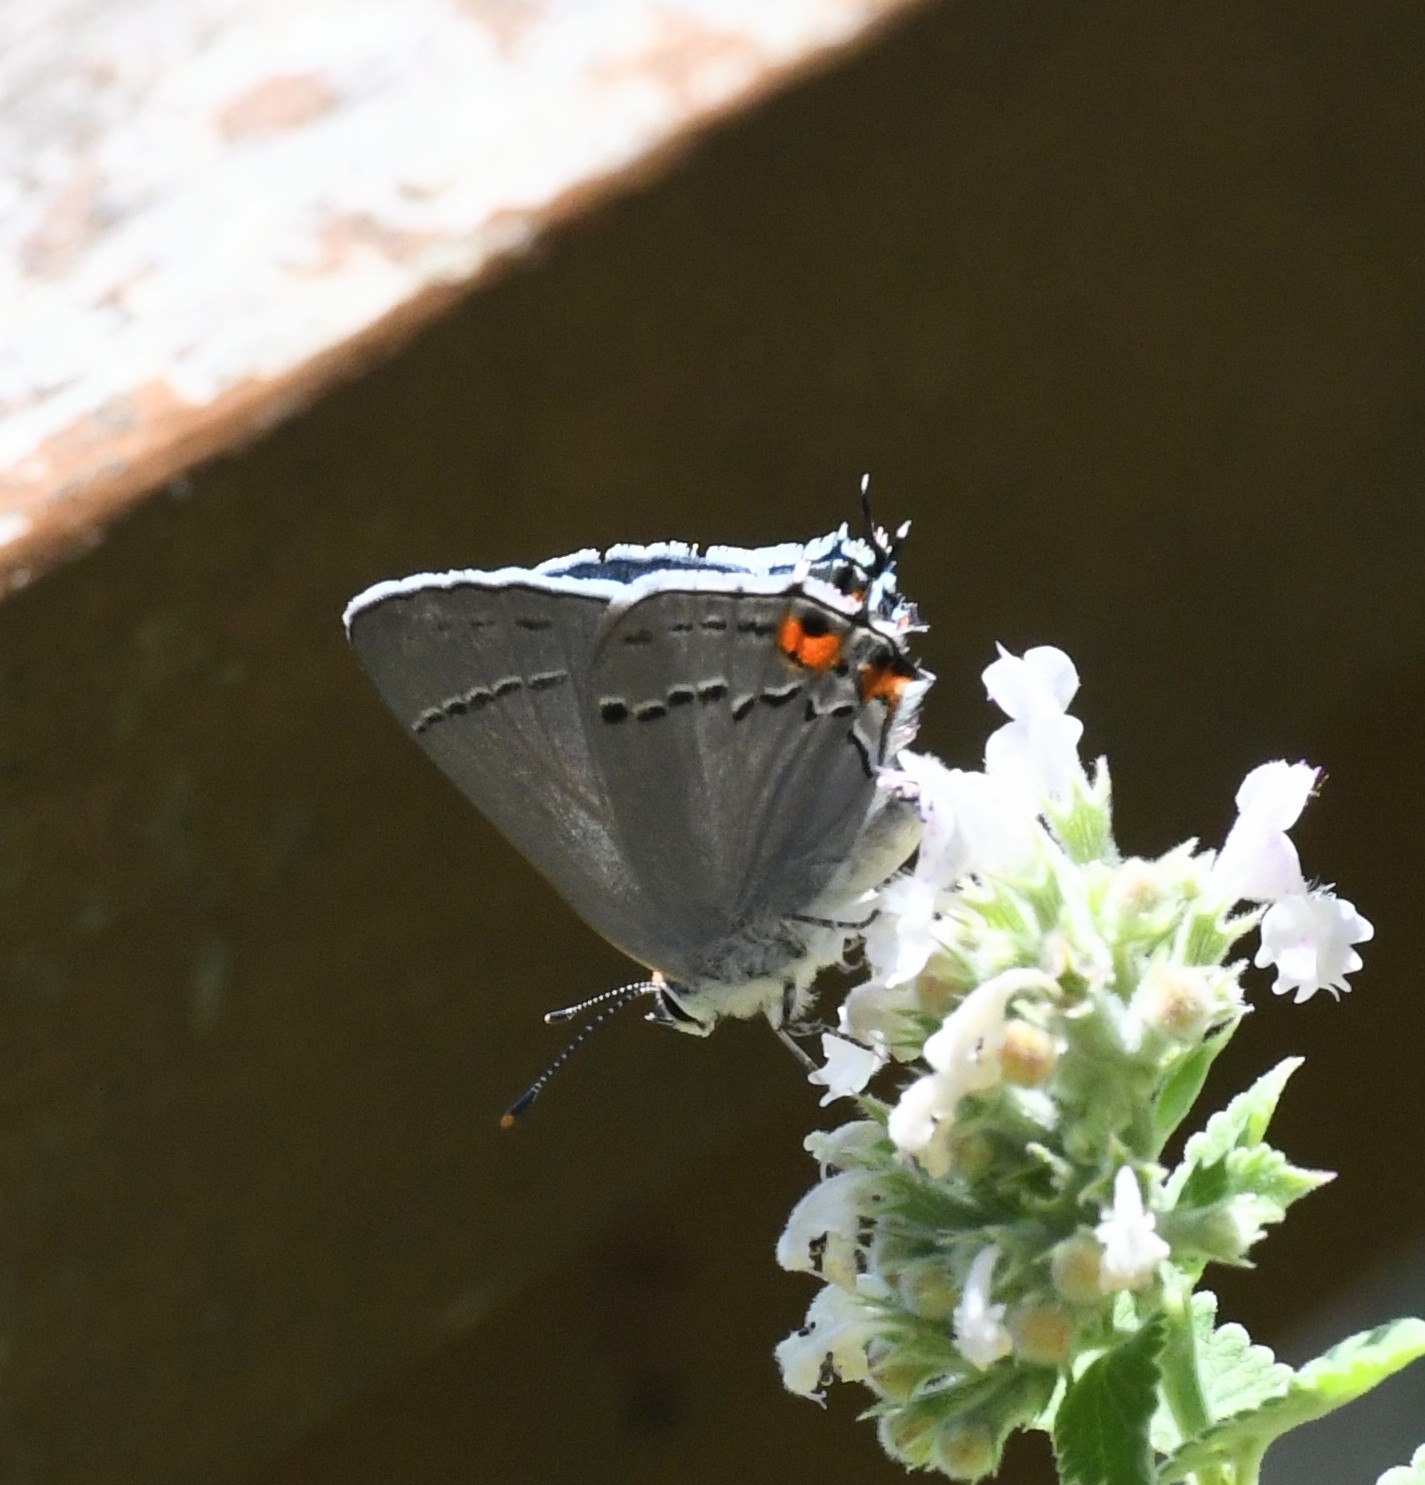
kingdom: Animalia
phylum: Arthropoda
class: Insecta
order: Lepidoptera
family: Lycaenidae
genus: Strymon
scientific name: Strymon melinus
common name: Gray hairstreak
